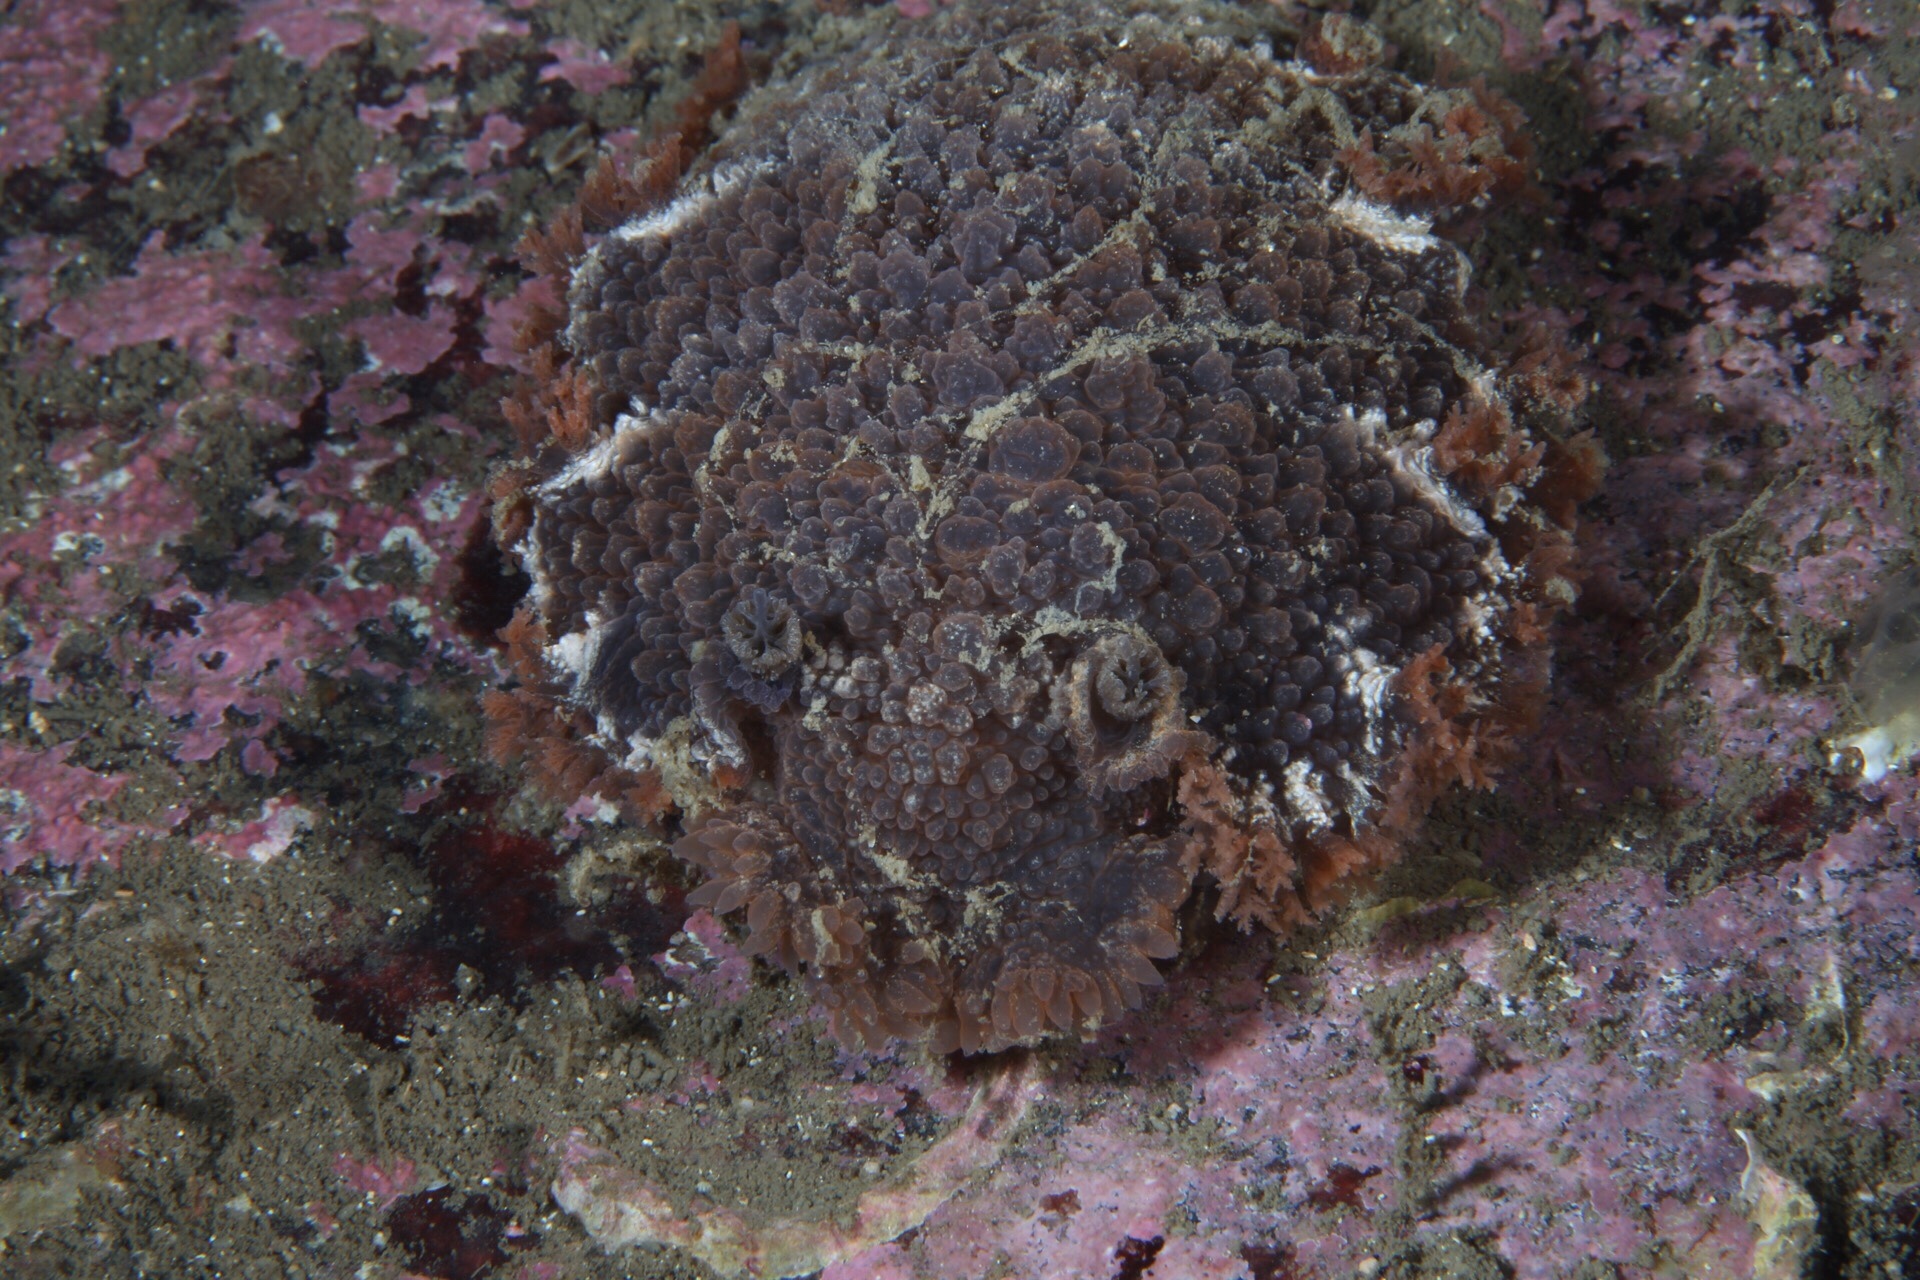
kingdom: Animalia
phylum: Mollusca
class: Gastropoda
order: Nudibranchia
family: Tritoniidae
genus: Tritonia
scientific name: Tritonia hombergii
